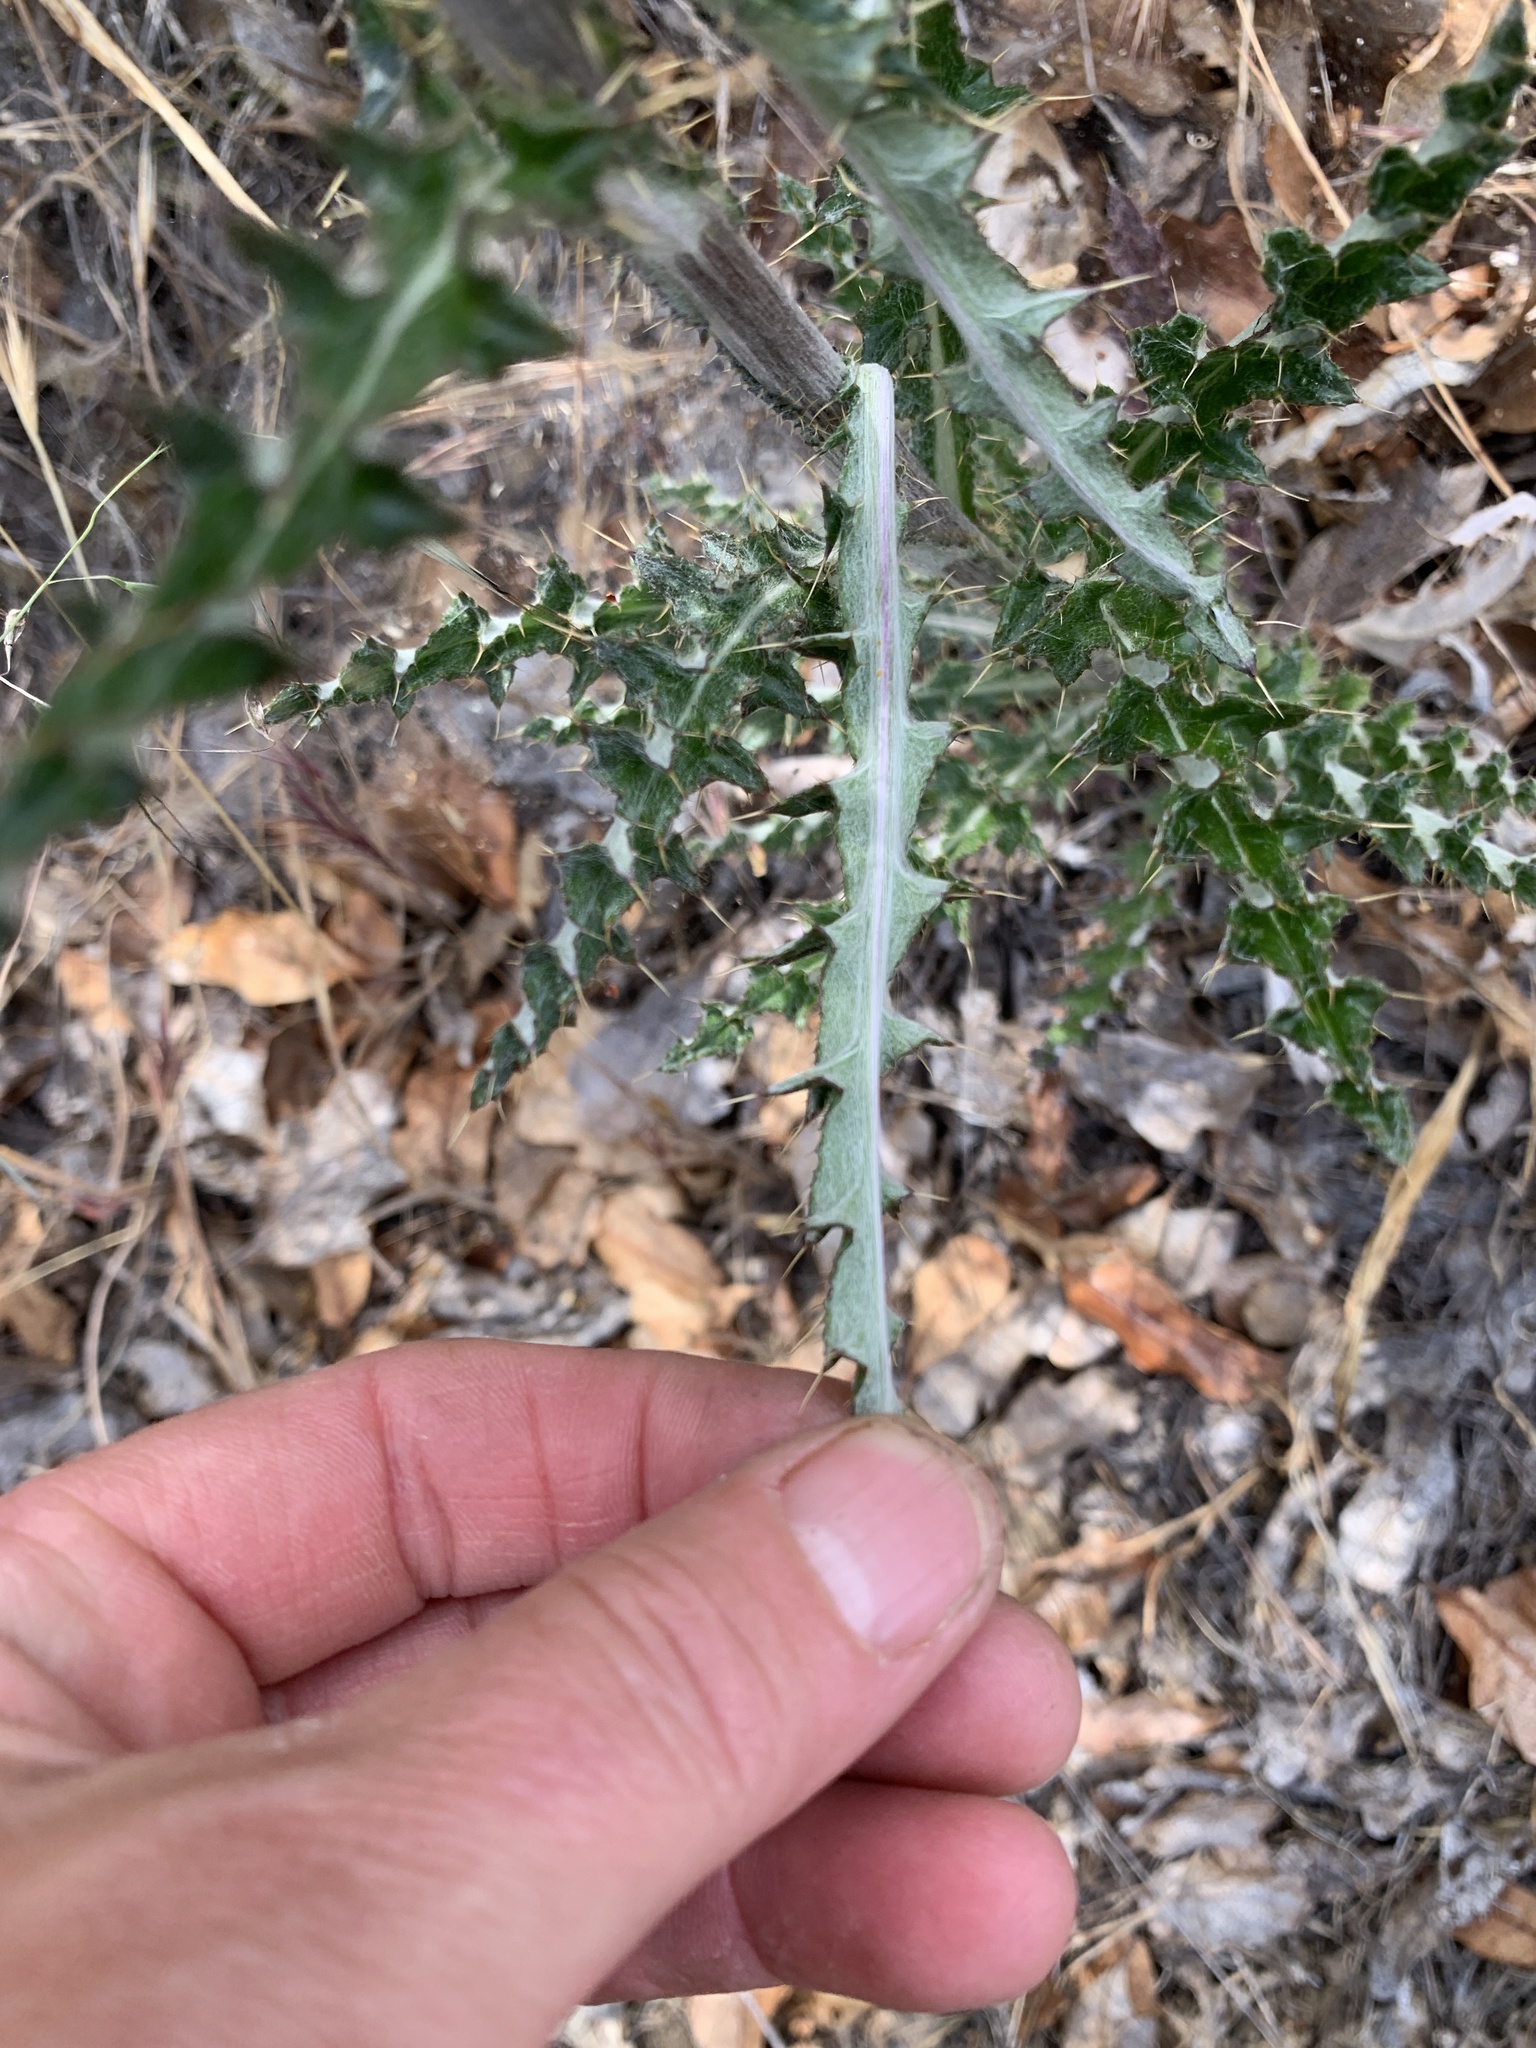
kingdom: Plantae
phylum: Tracheophyta
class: Magnoliopsida
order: Asterales
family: Asteraceae
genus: Cirsium
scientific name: Cirsium occidentale
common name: Western thistle
